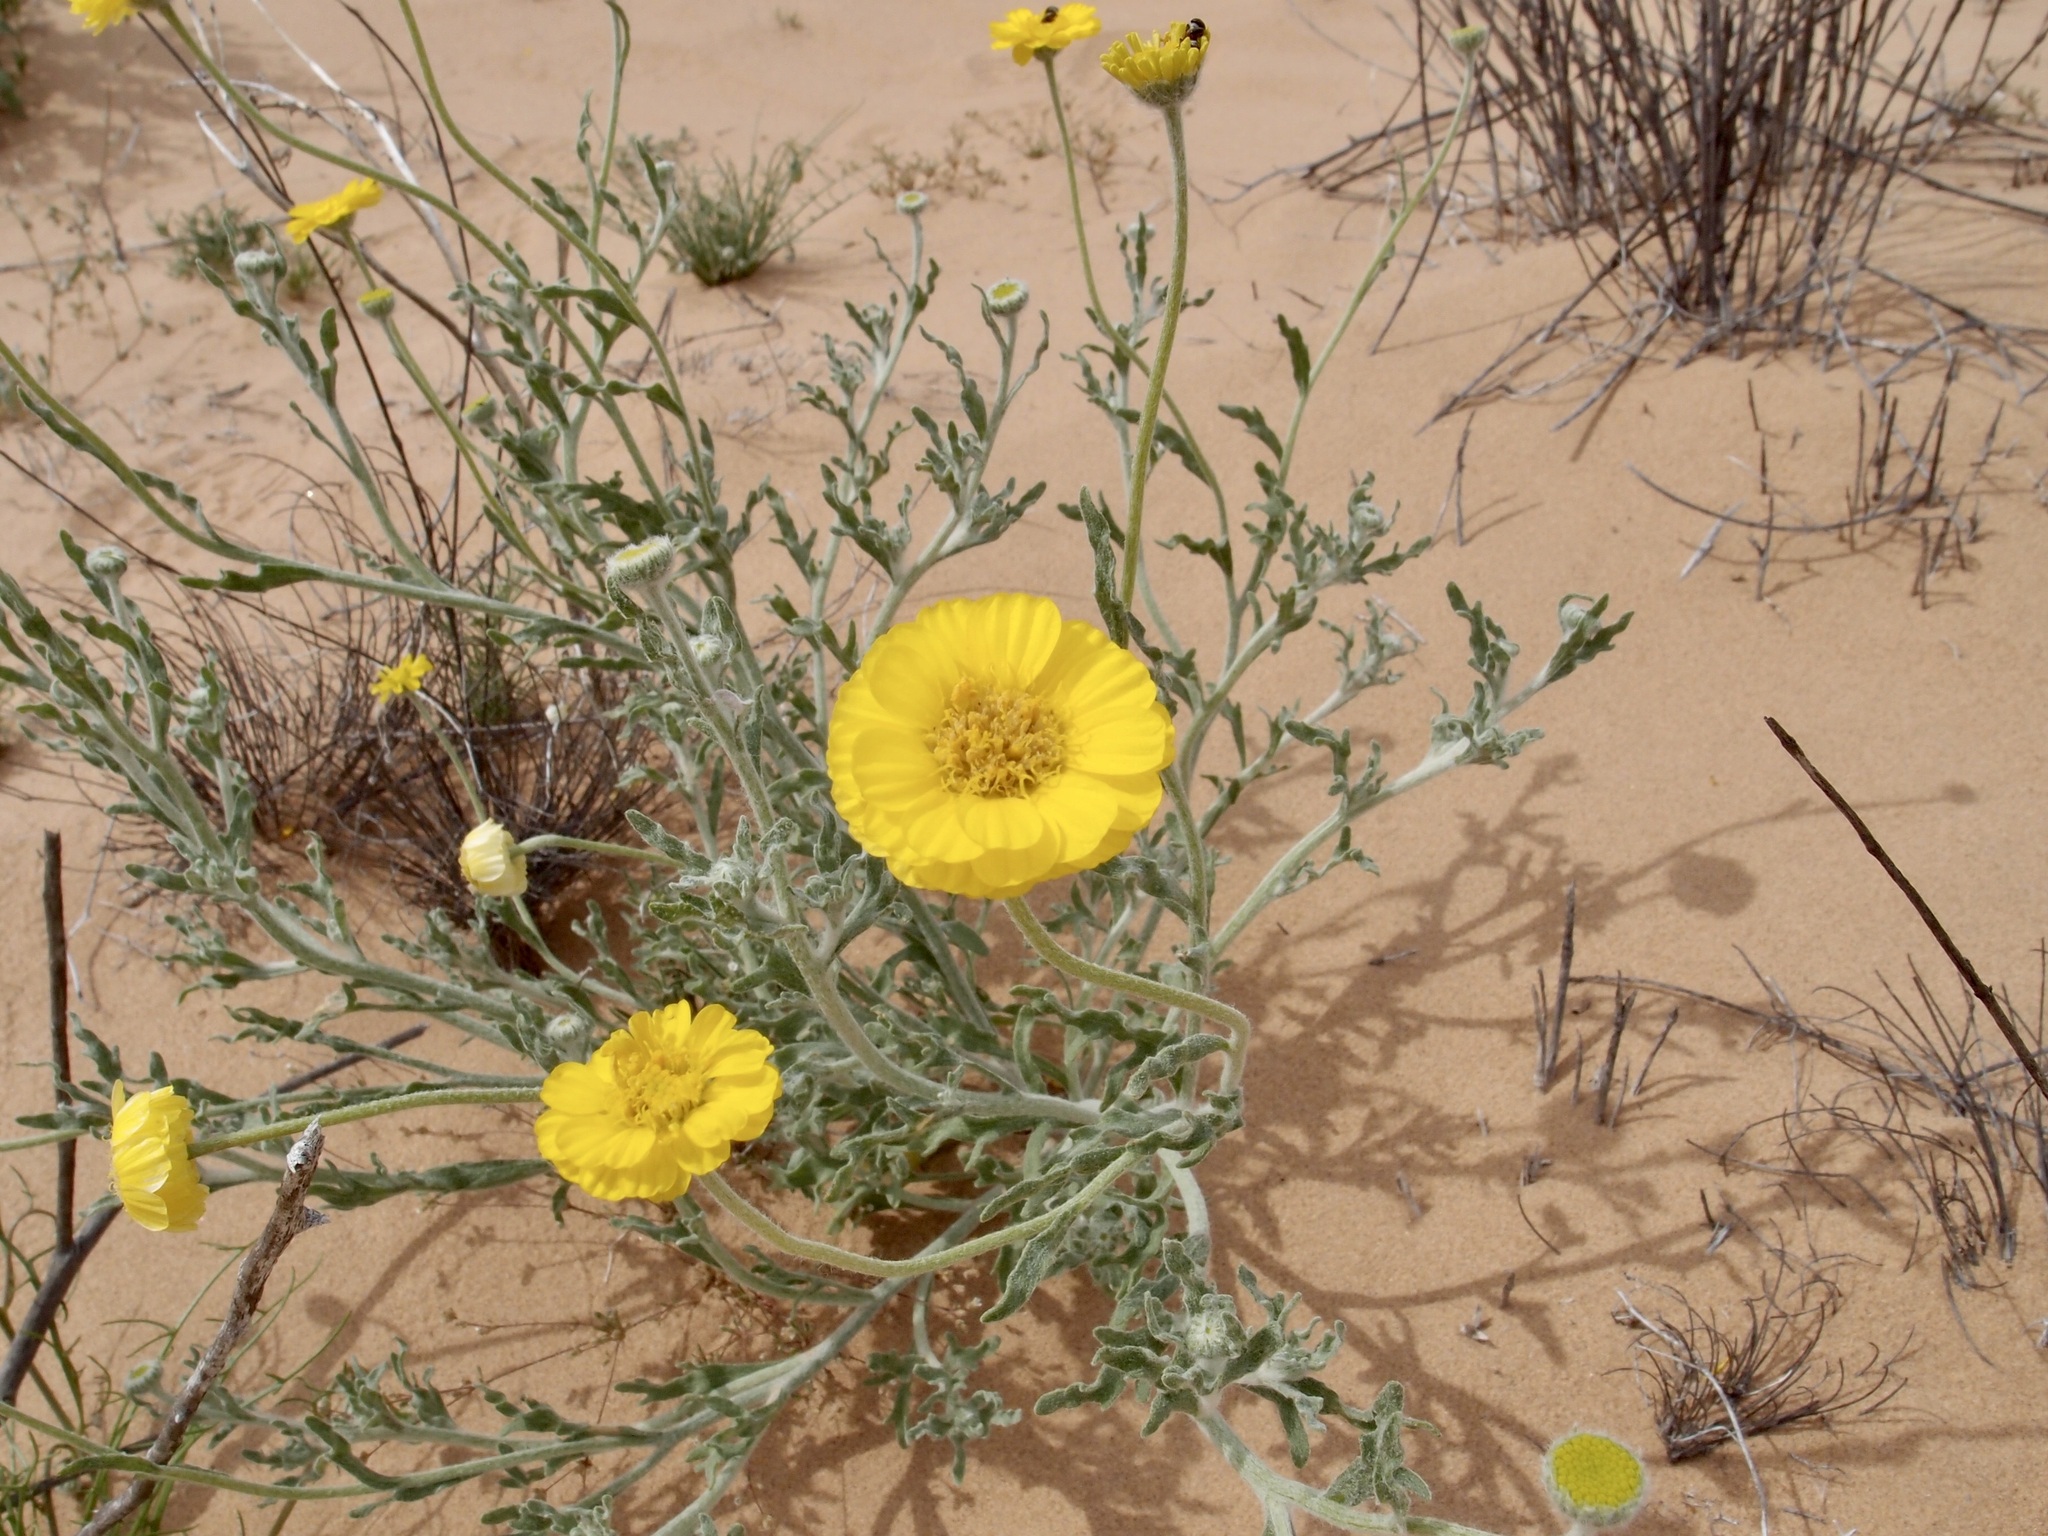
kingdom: Plantae
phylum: Tracheophyta
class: Magnoliopsida
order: Asterales
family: Asteraceae
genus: Baileya
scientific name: Baileya pleniradiata
